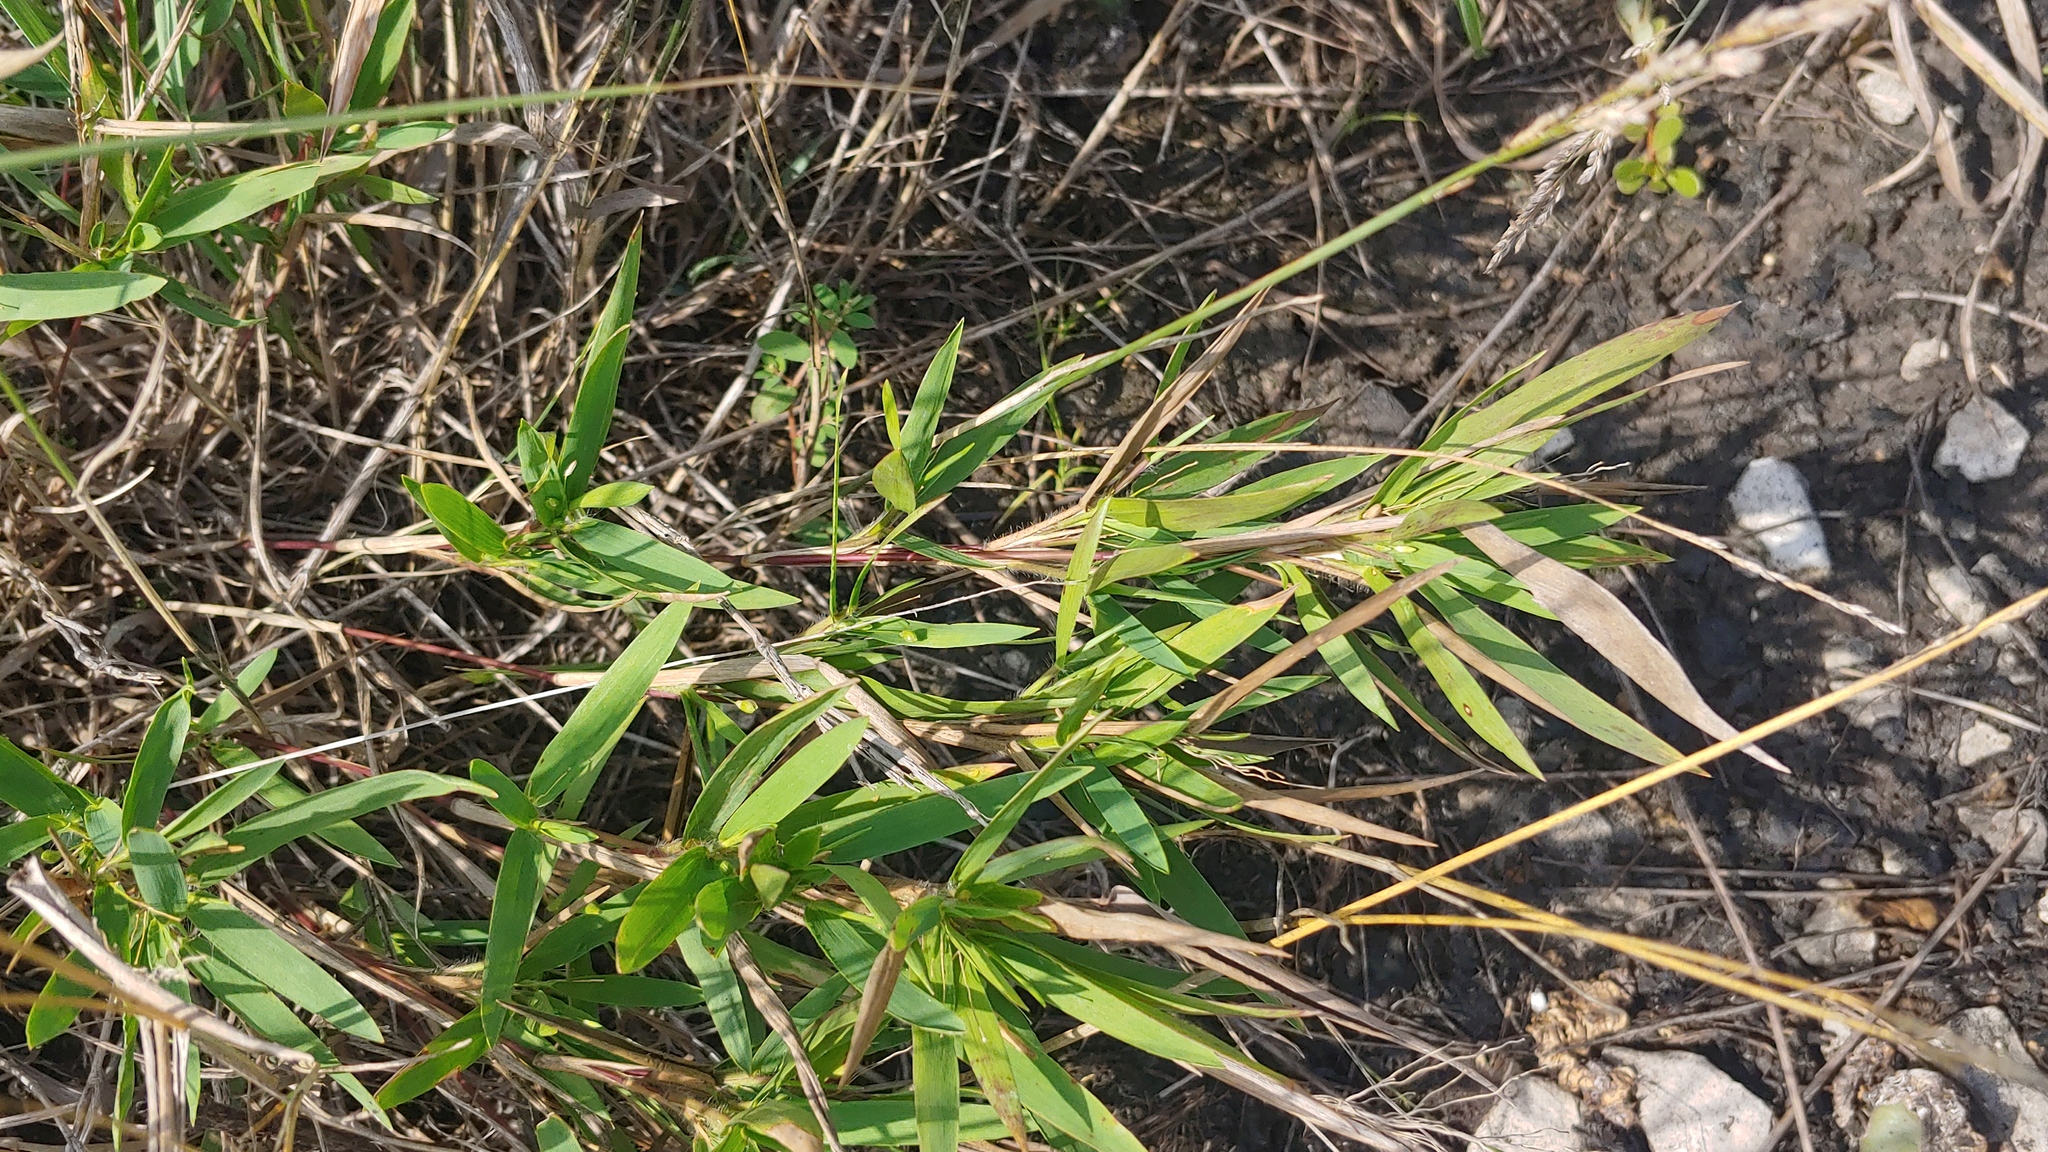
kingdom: Plantae
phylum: Tracheophyta
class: Liliopsida
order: Poales
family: Poaceae
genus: Dichanthelium
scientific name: Dichanthelium oligosanthes
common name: Few-anther obscuregrass
